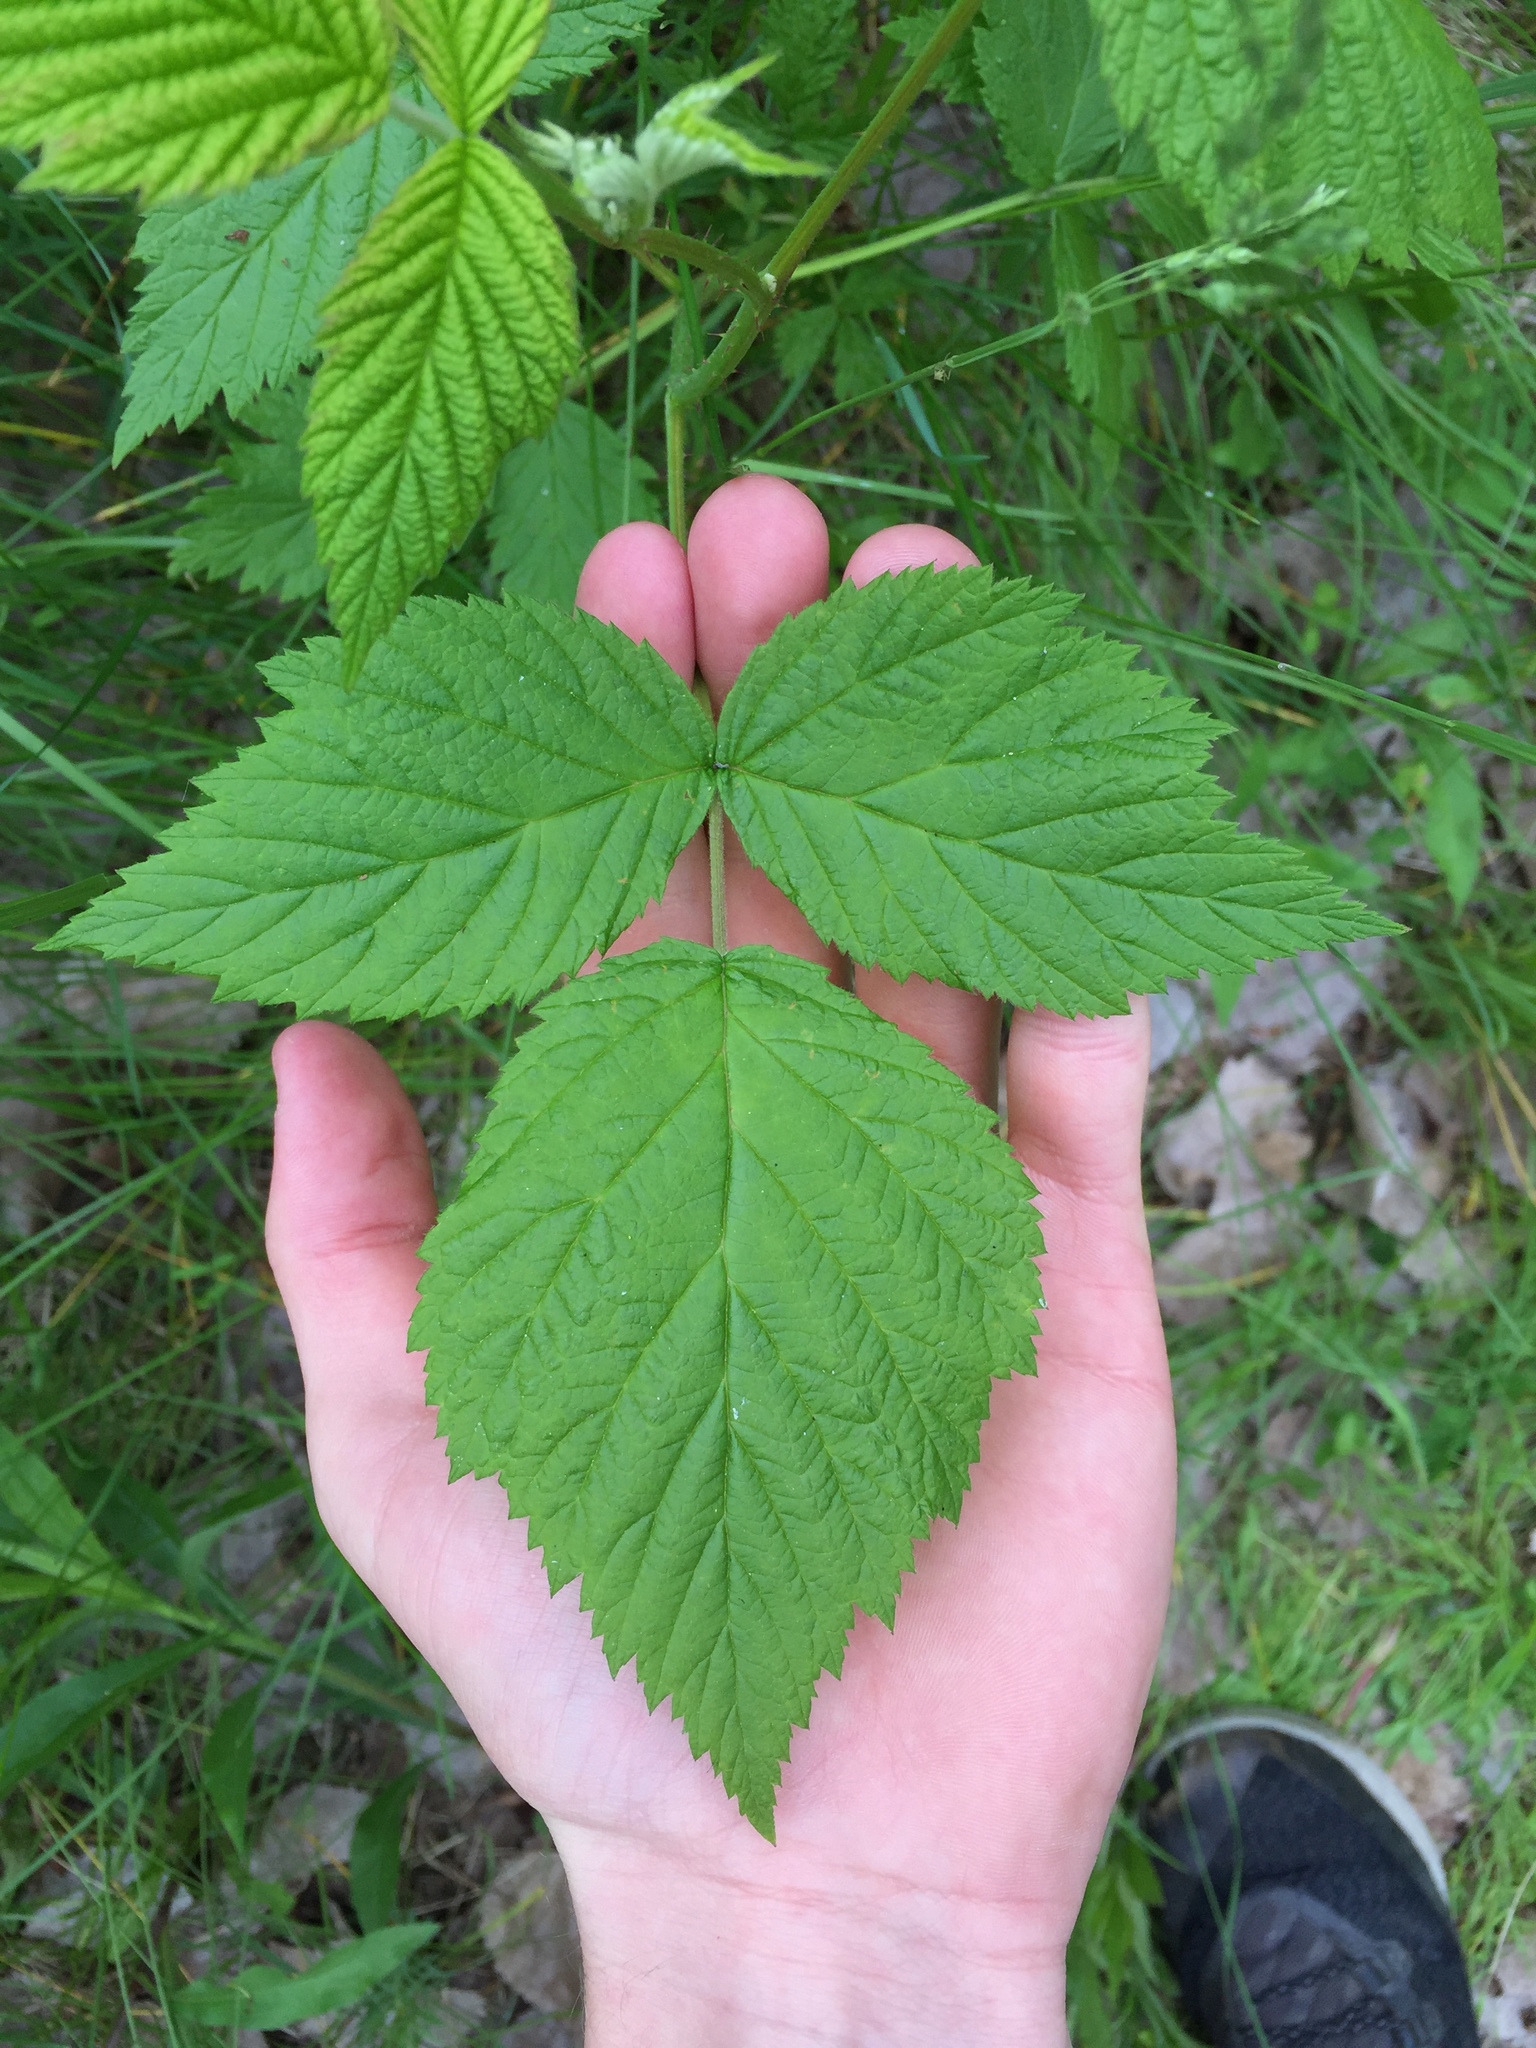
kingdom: Plantae
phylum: Tracheophyta
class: Magnoliopsida
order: Rosales
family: Rosaceae
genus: Rubus
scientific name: Rubus occidentalis
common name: Black raspberry
